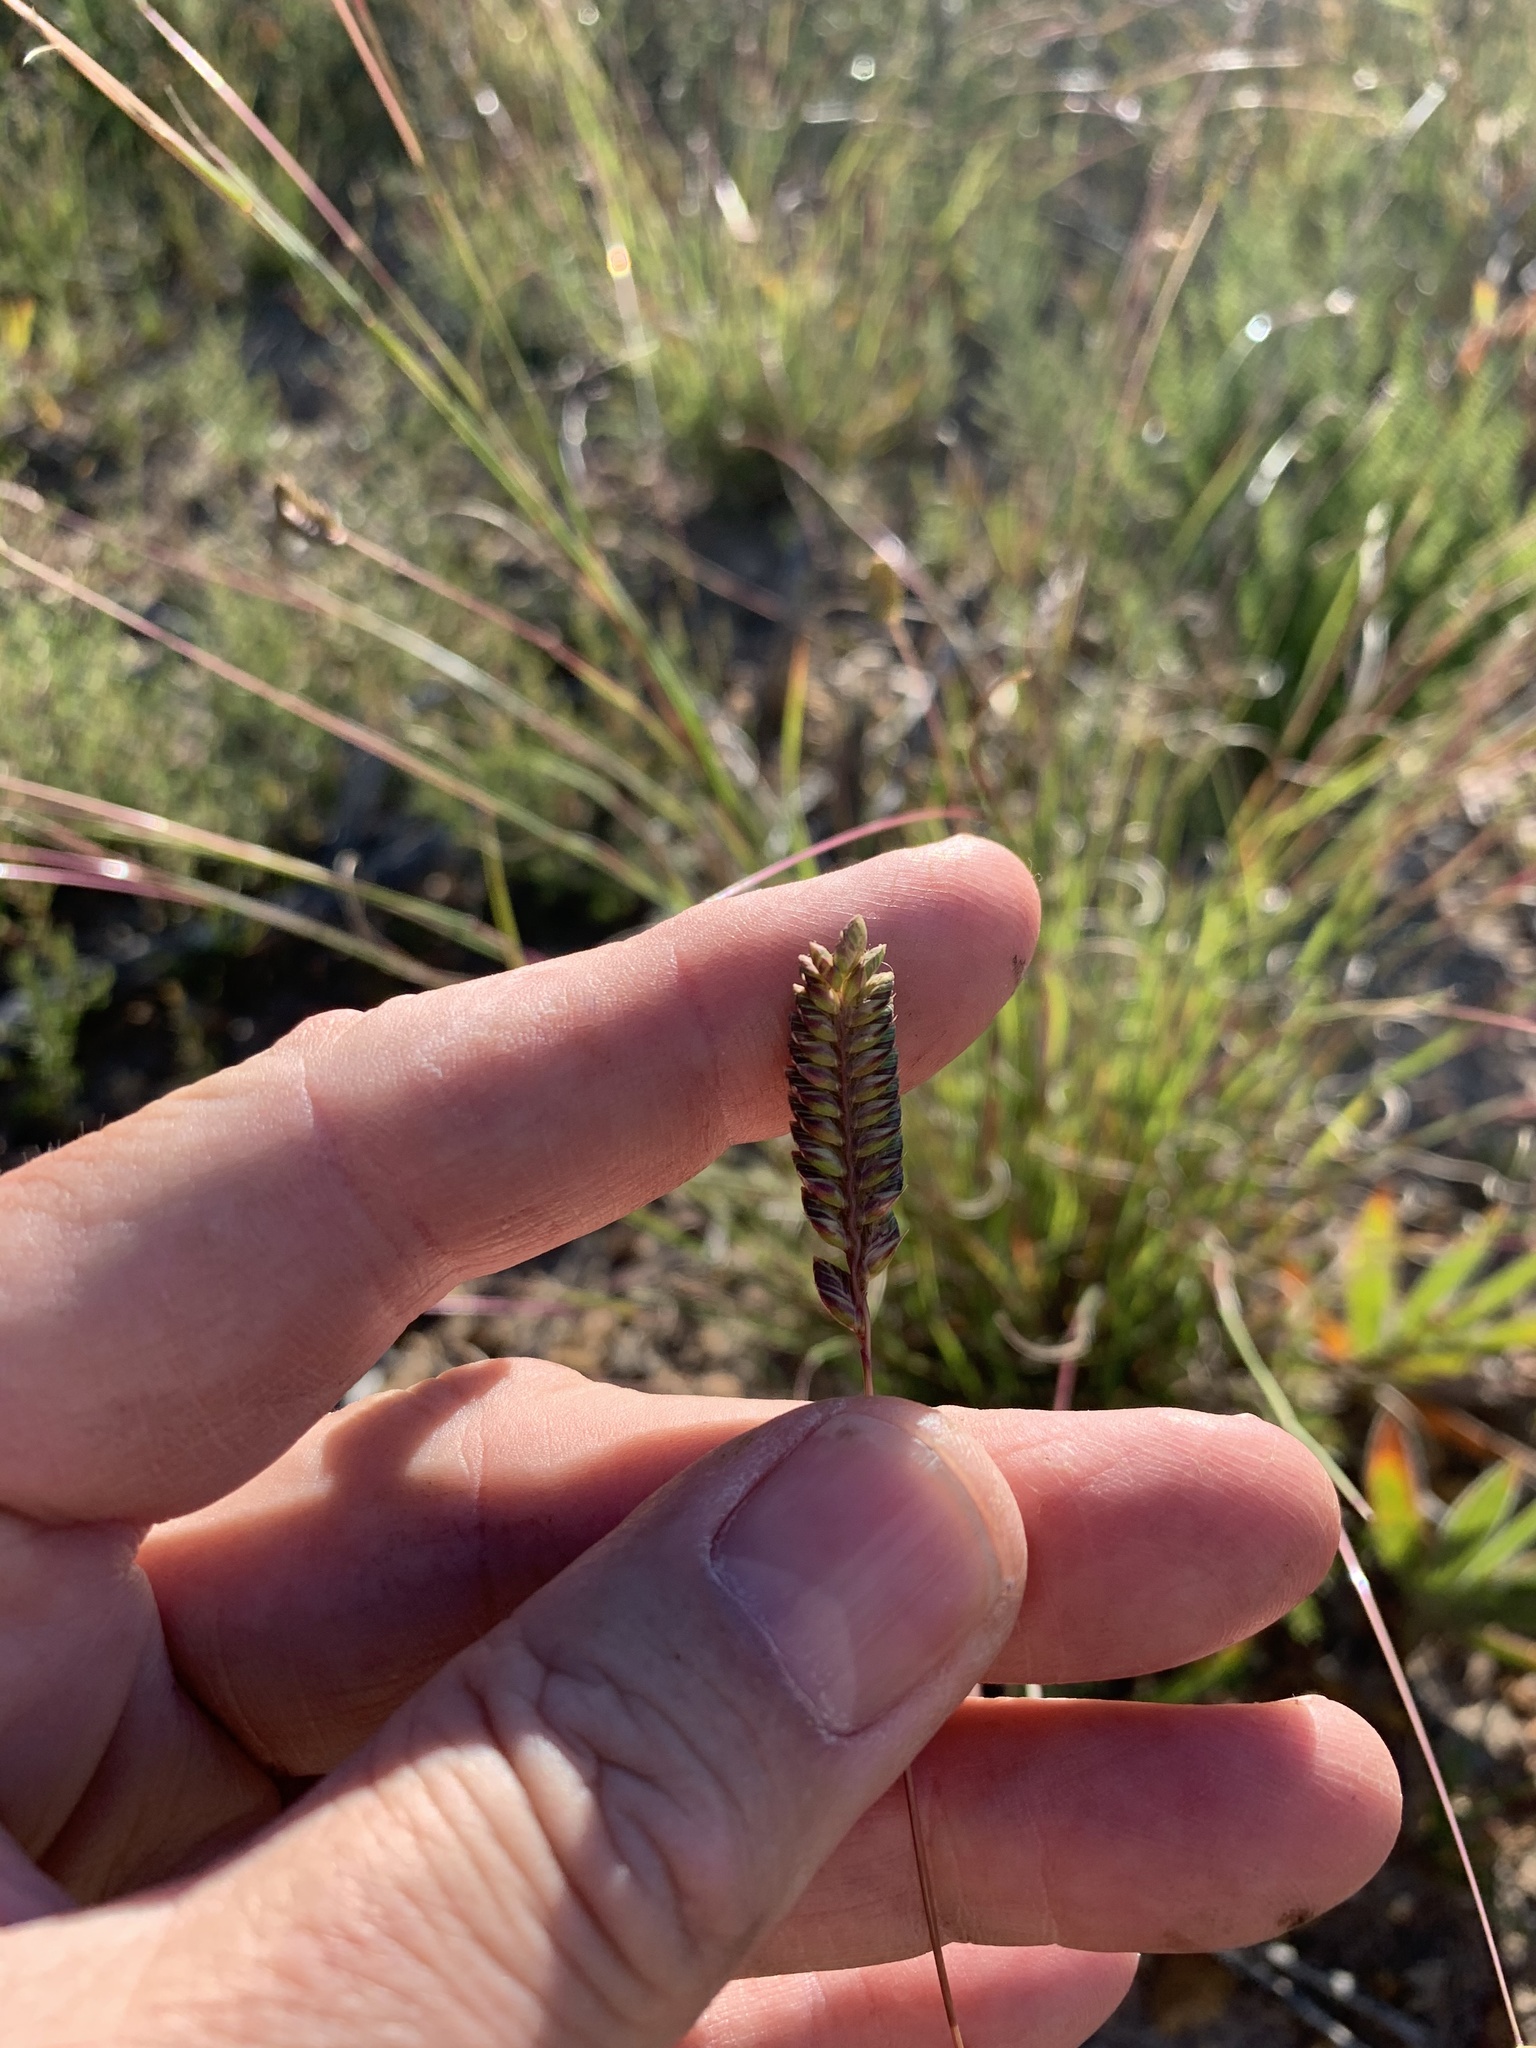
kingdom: Plantae
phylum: Tracheophyta
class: Liliopsida
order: Poales
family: Poaceae
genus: Tribolium
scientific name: Tribolium uniolae
